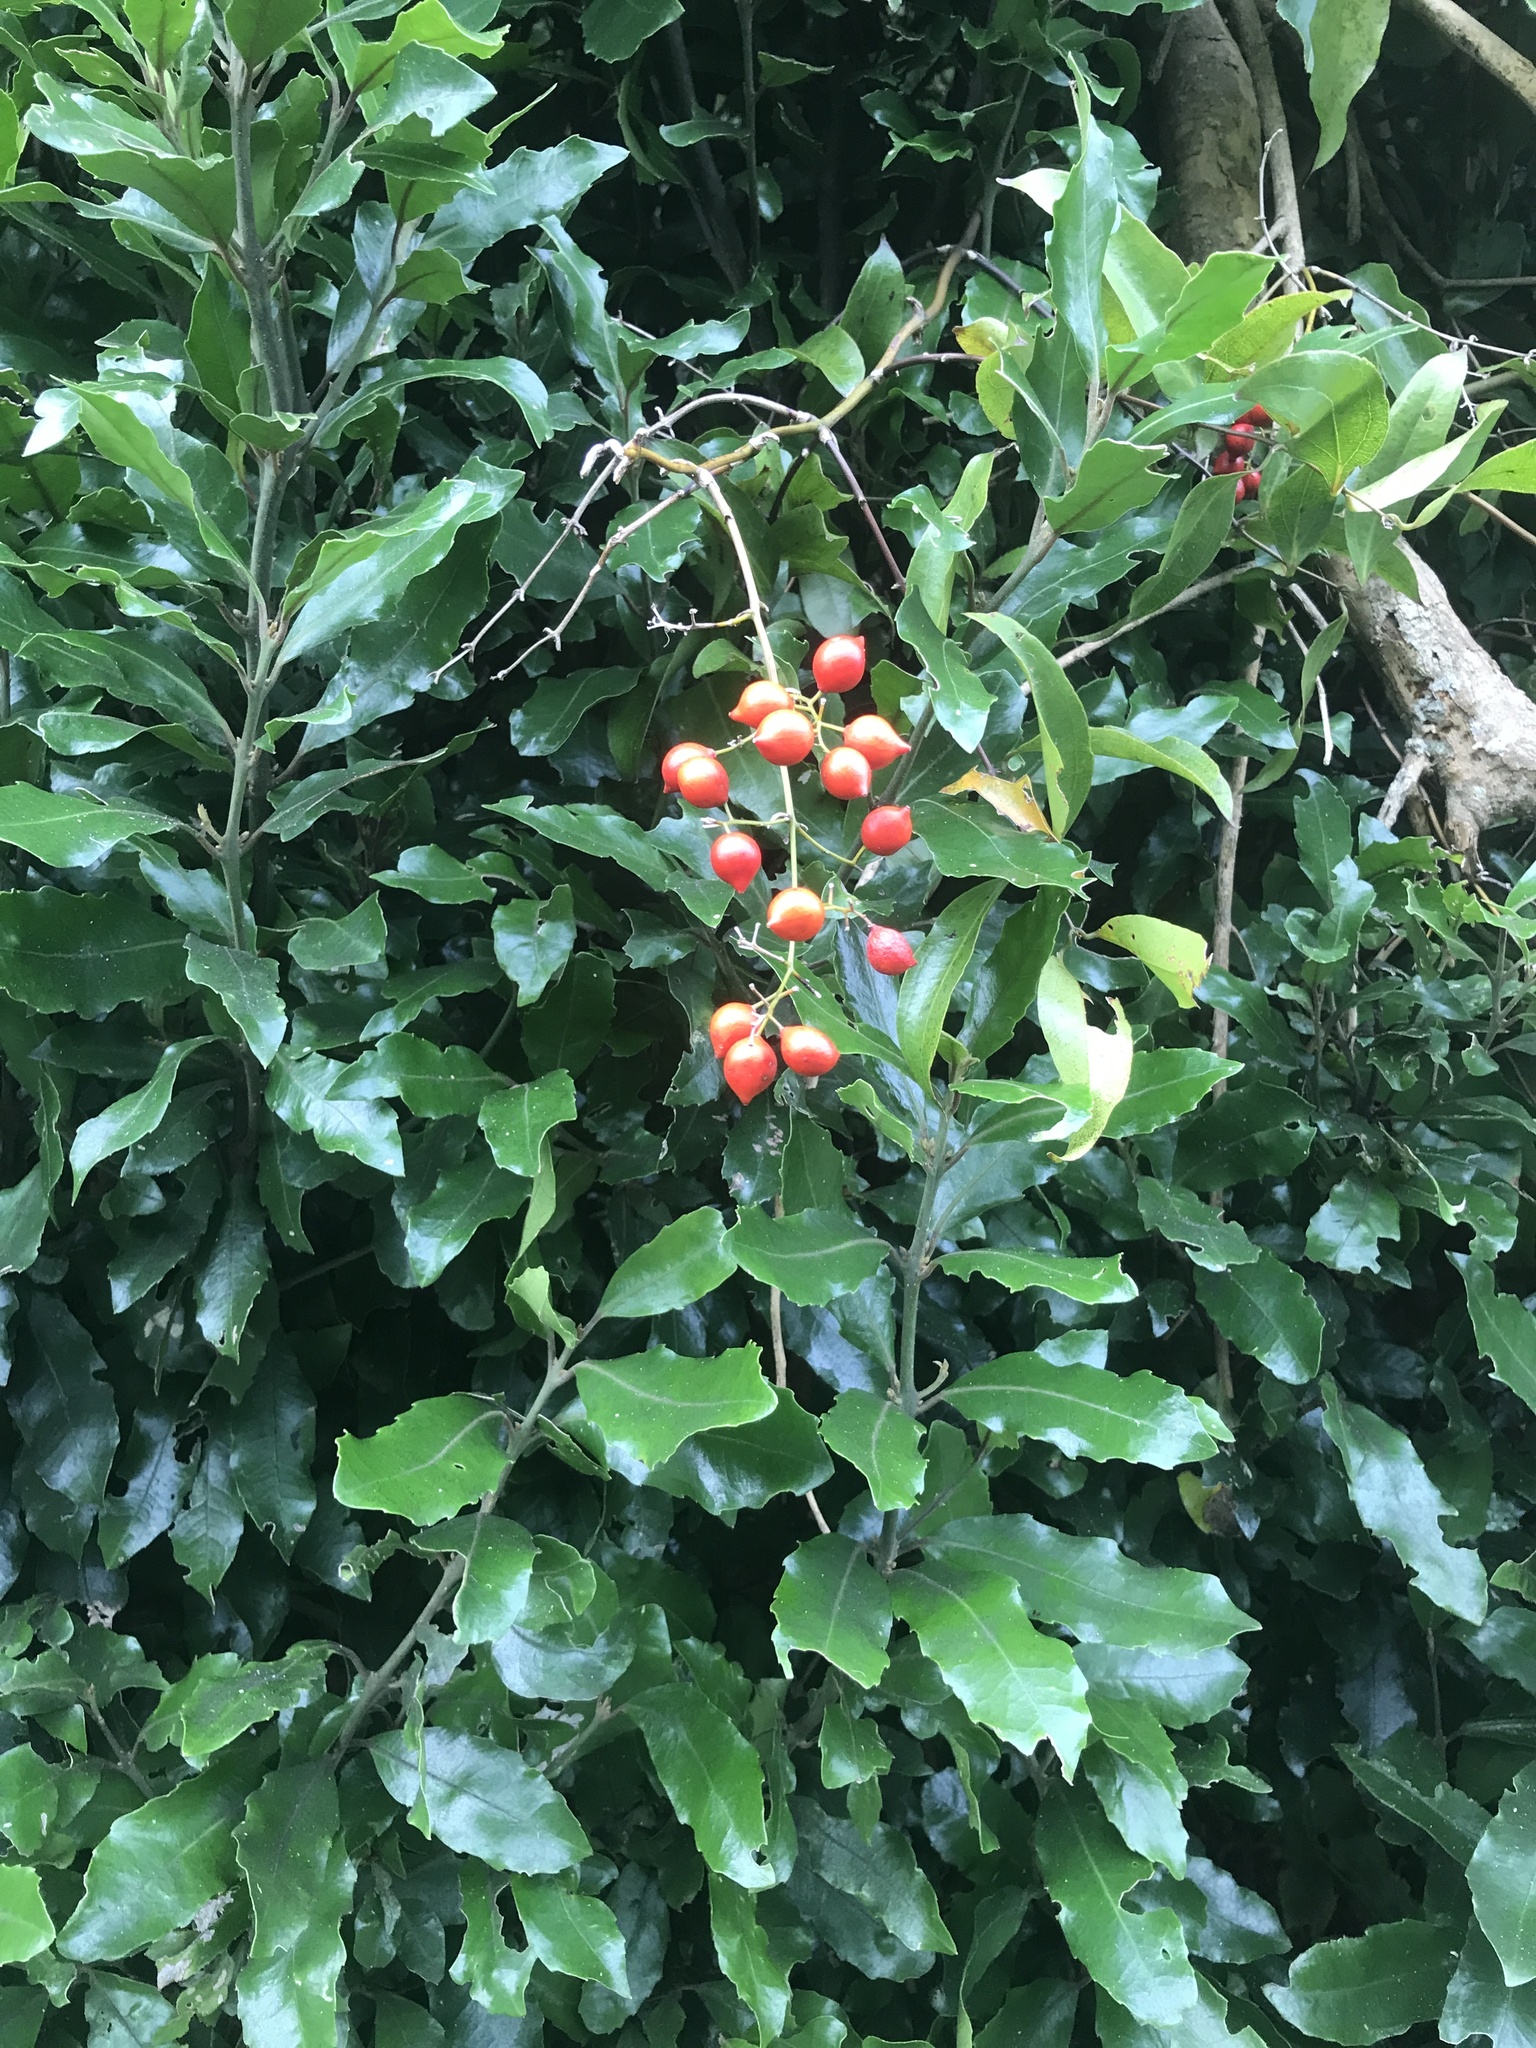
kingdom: Plantae
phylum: Tracheophyta
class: Liliopsida
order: Liliales
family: Ripogonaceae
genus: Ripogonum
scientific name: Ripogonum scandens
